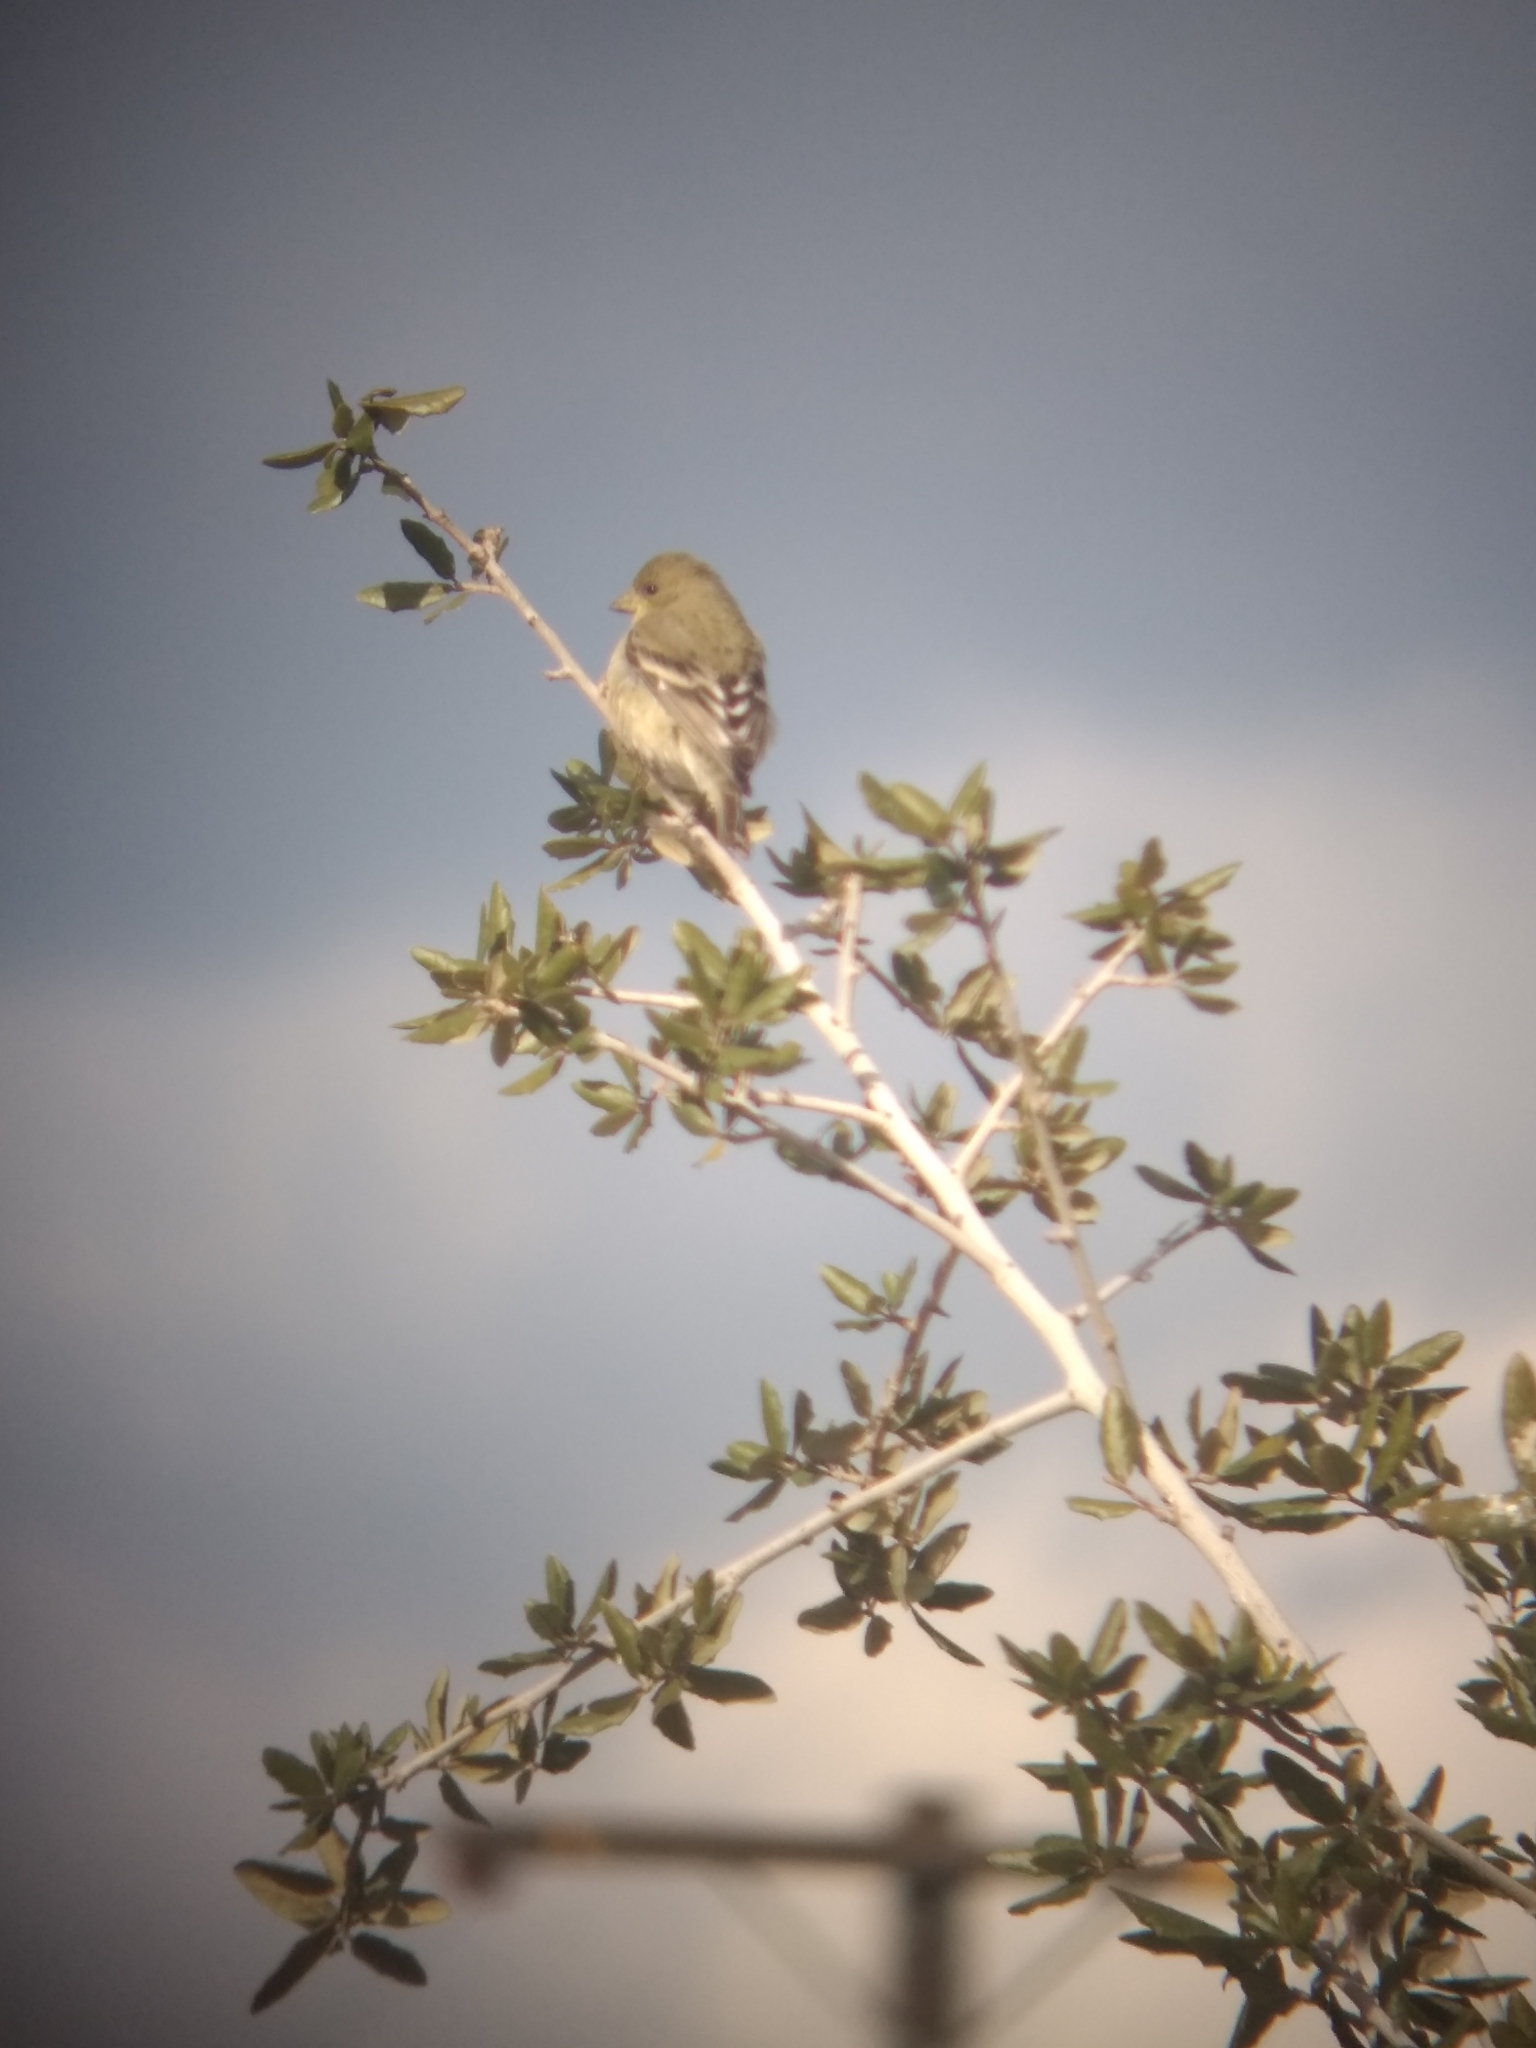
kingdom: Animalia
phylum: Chordata
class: Aves
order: Passeriformes
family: Fringillidae
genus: Spinus
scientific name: Spinus psaltria
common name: Lesser goldfinch
